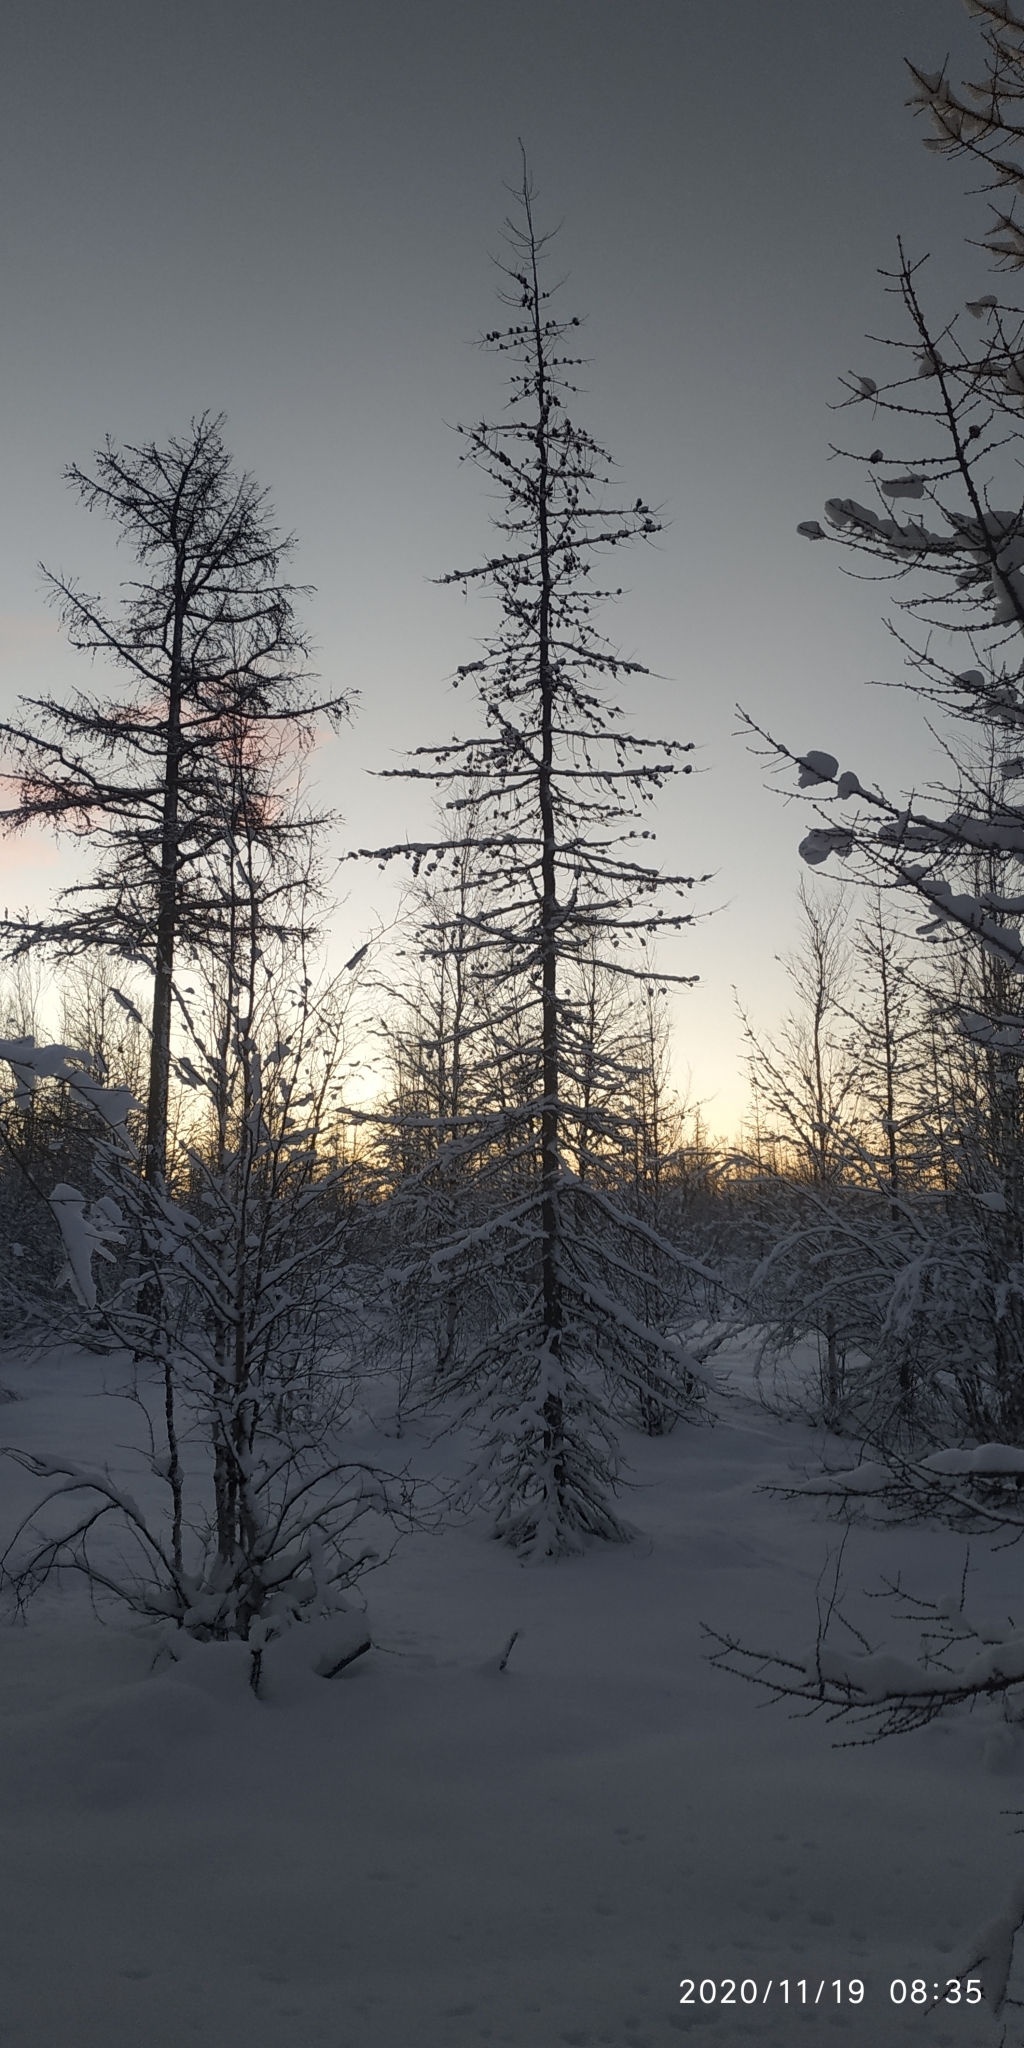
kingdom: Plantae
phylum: Tracheophyta
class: Pinopsida
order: Pinales
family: Pinaceae
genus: Larix
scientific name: Larix sibirica
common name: Siberian larch
